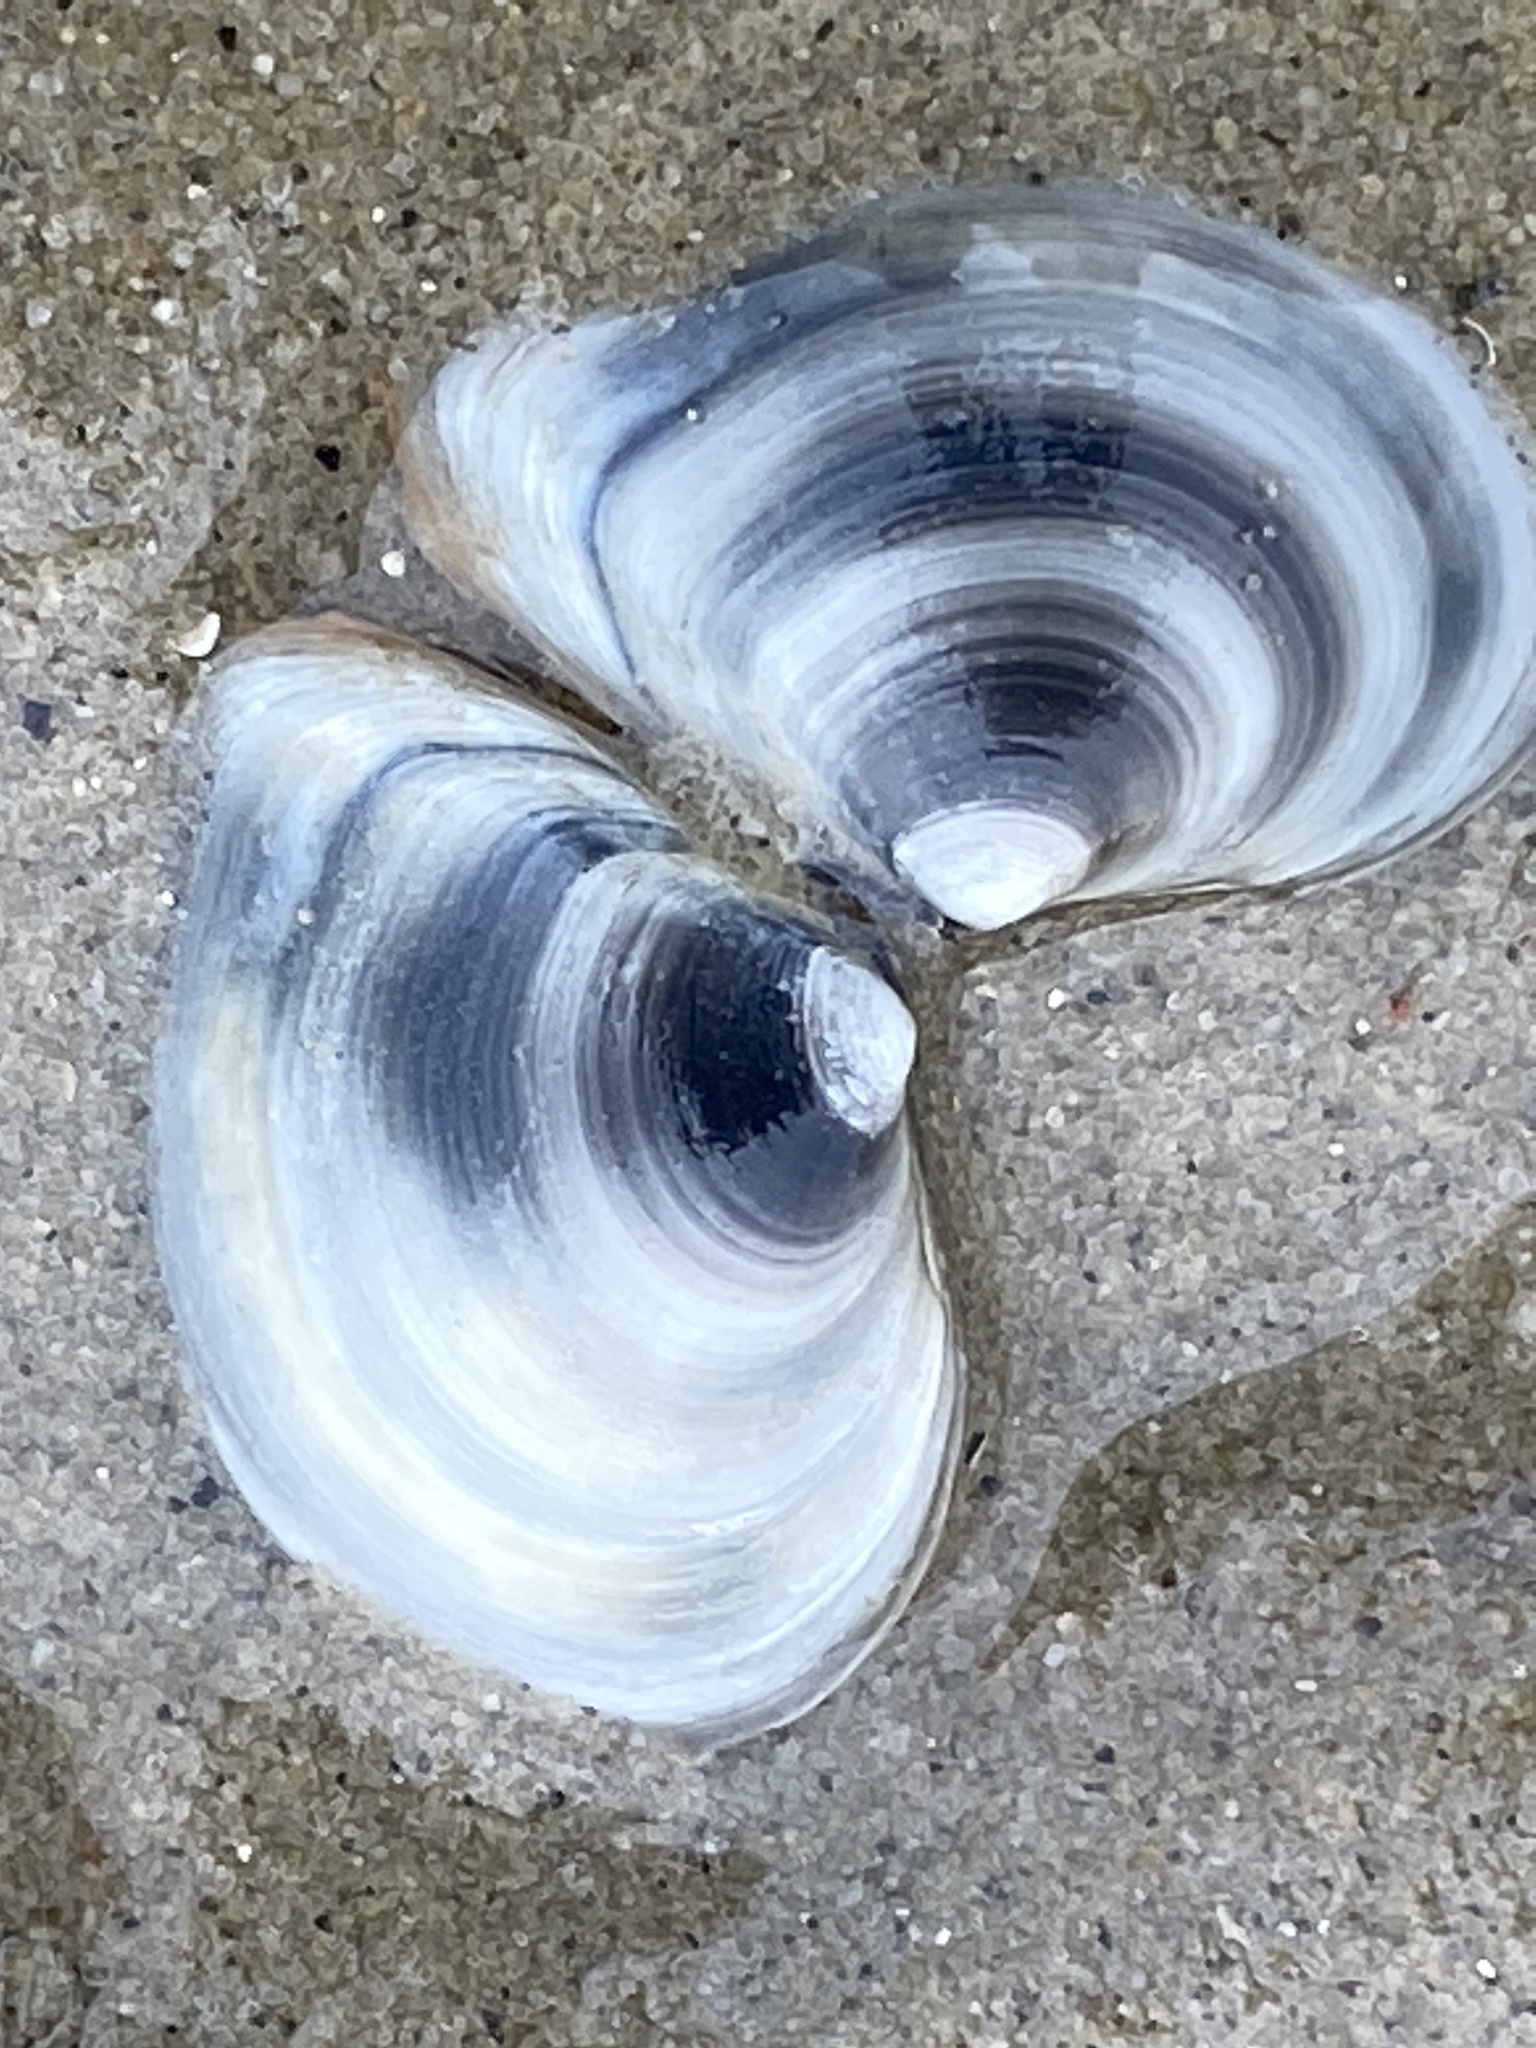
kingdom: Animalia
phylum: Mollusca
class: Bivalvia
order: Cardiida
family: Tellinidae
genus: Macoma
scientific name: Macoma balthica
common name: Baltic tellin
